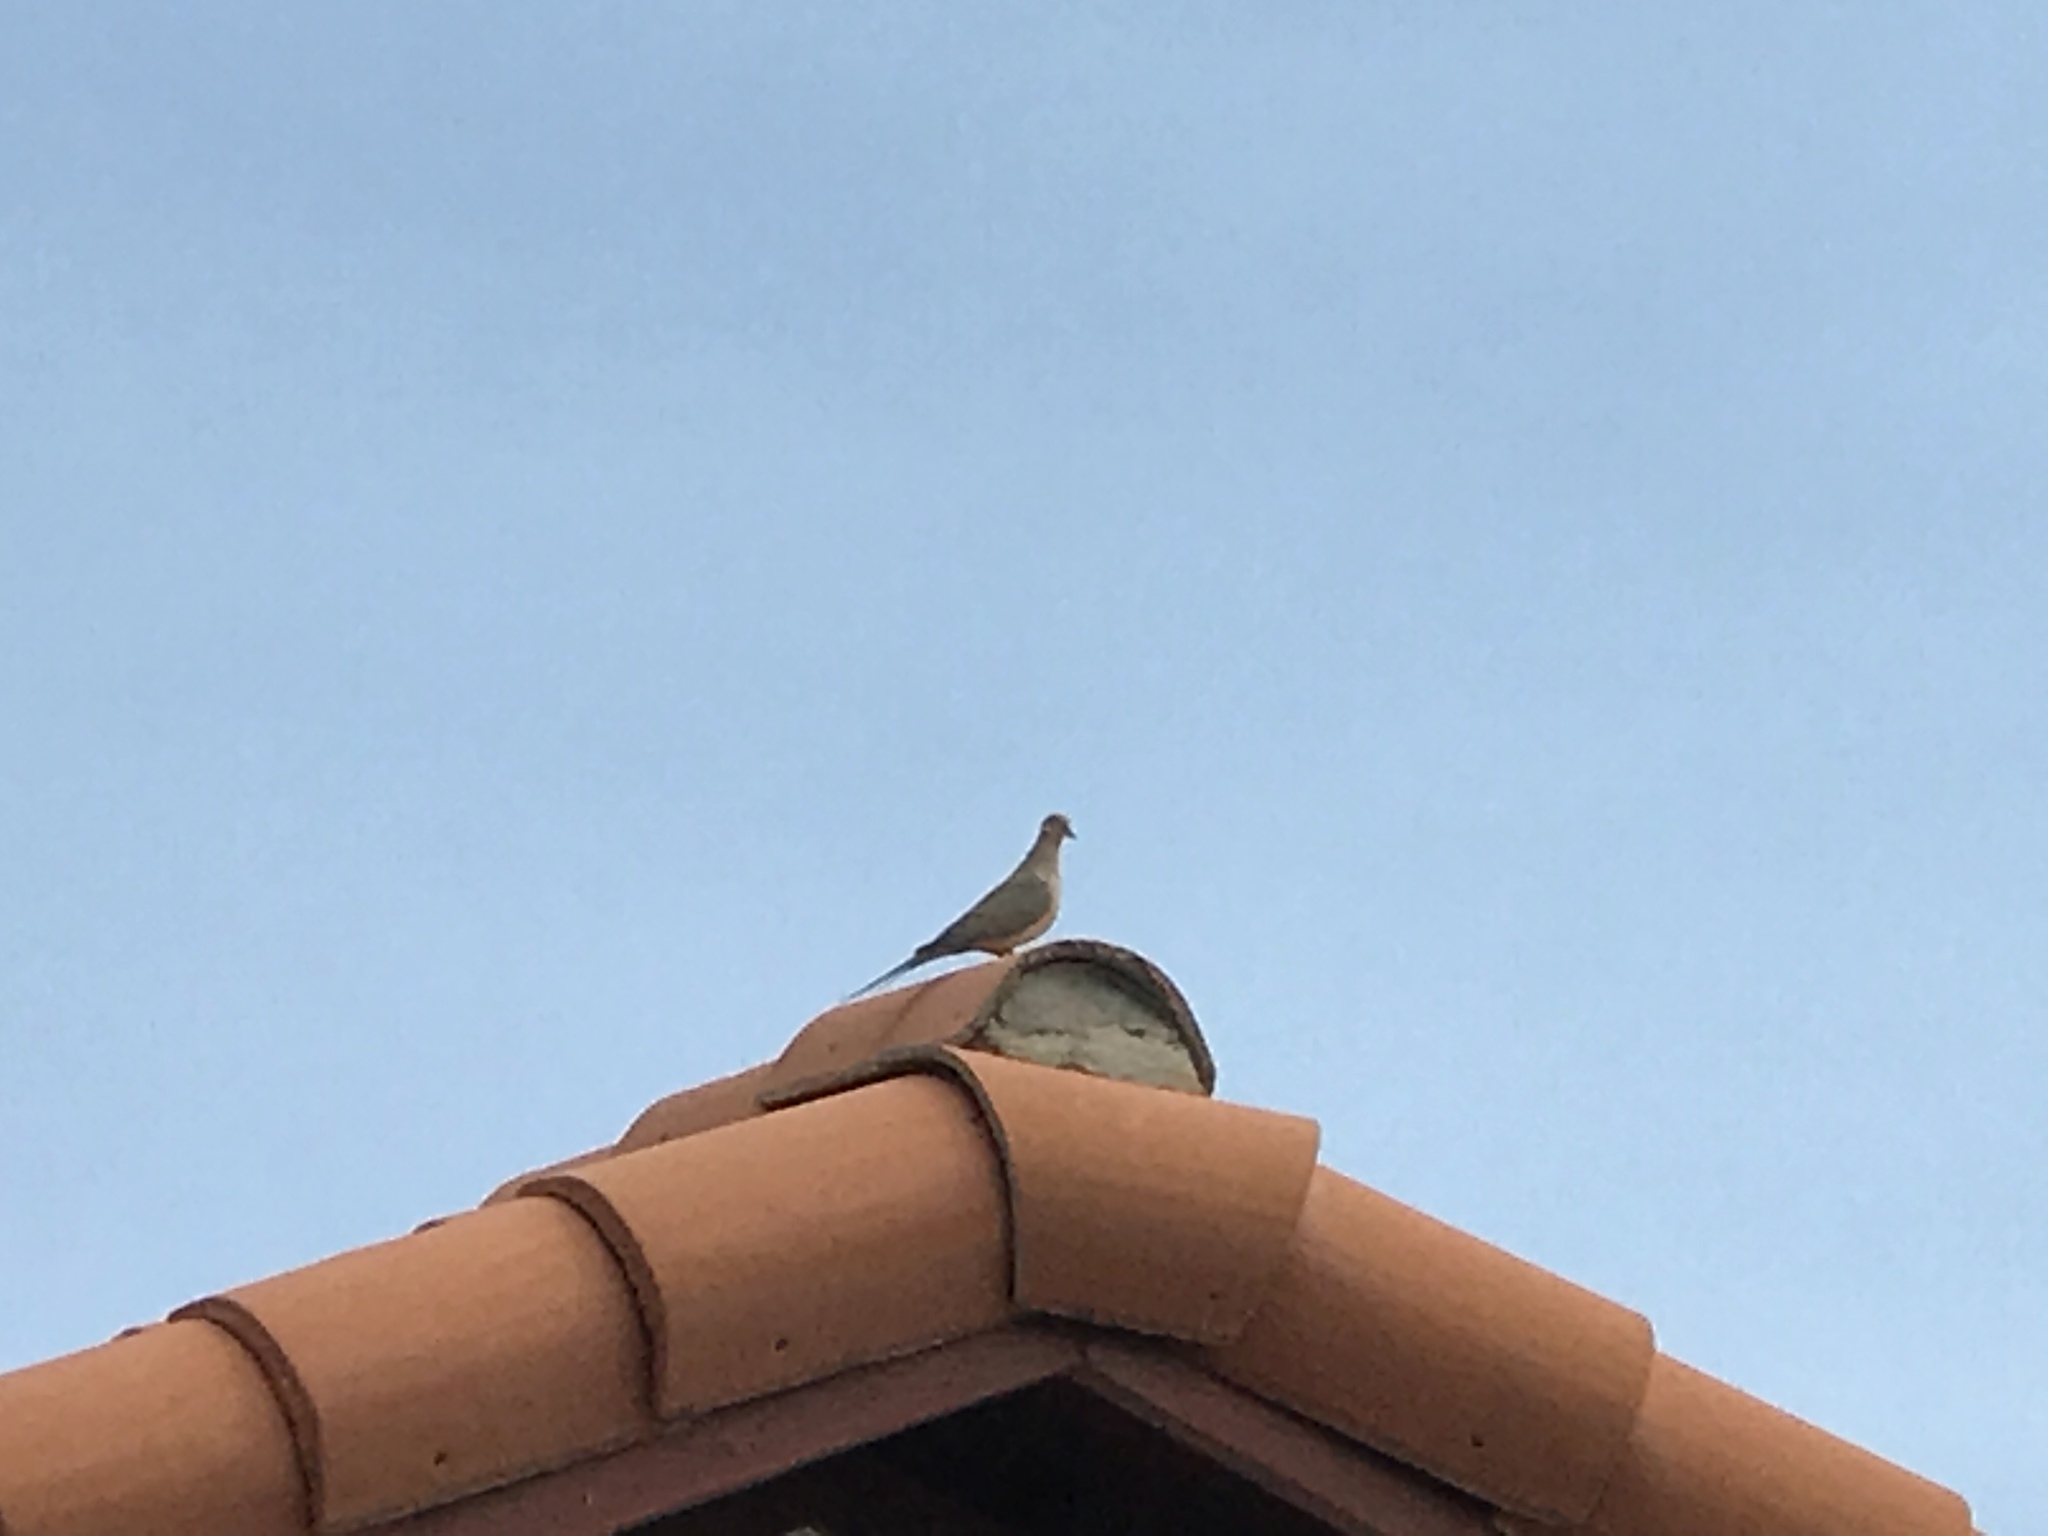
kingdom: Animalia
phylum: Chordata
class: Aves
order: Columbiformes
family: Columbidae
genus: Zenaida
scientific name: Zenaida macroura
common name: Mourning dove
